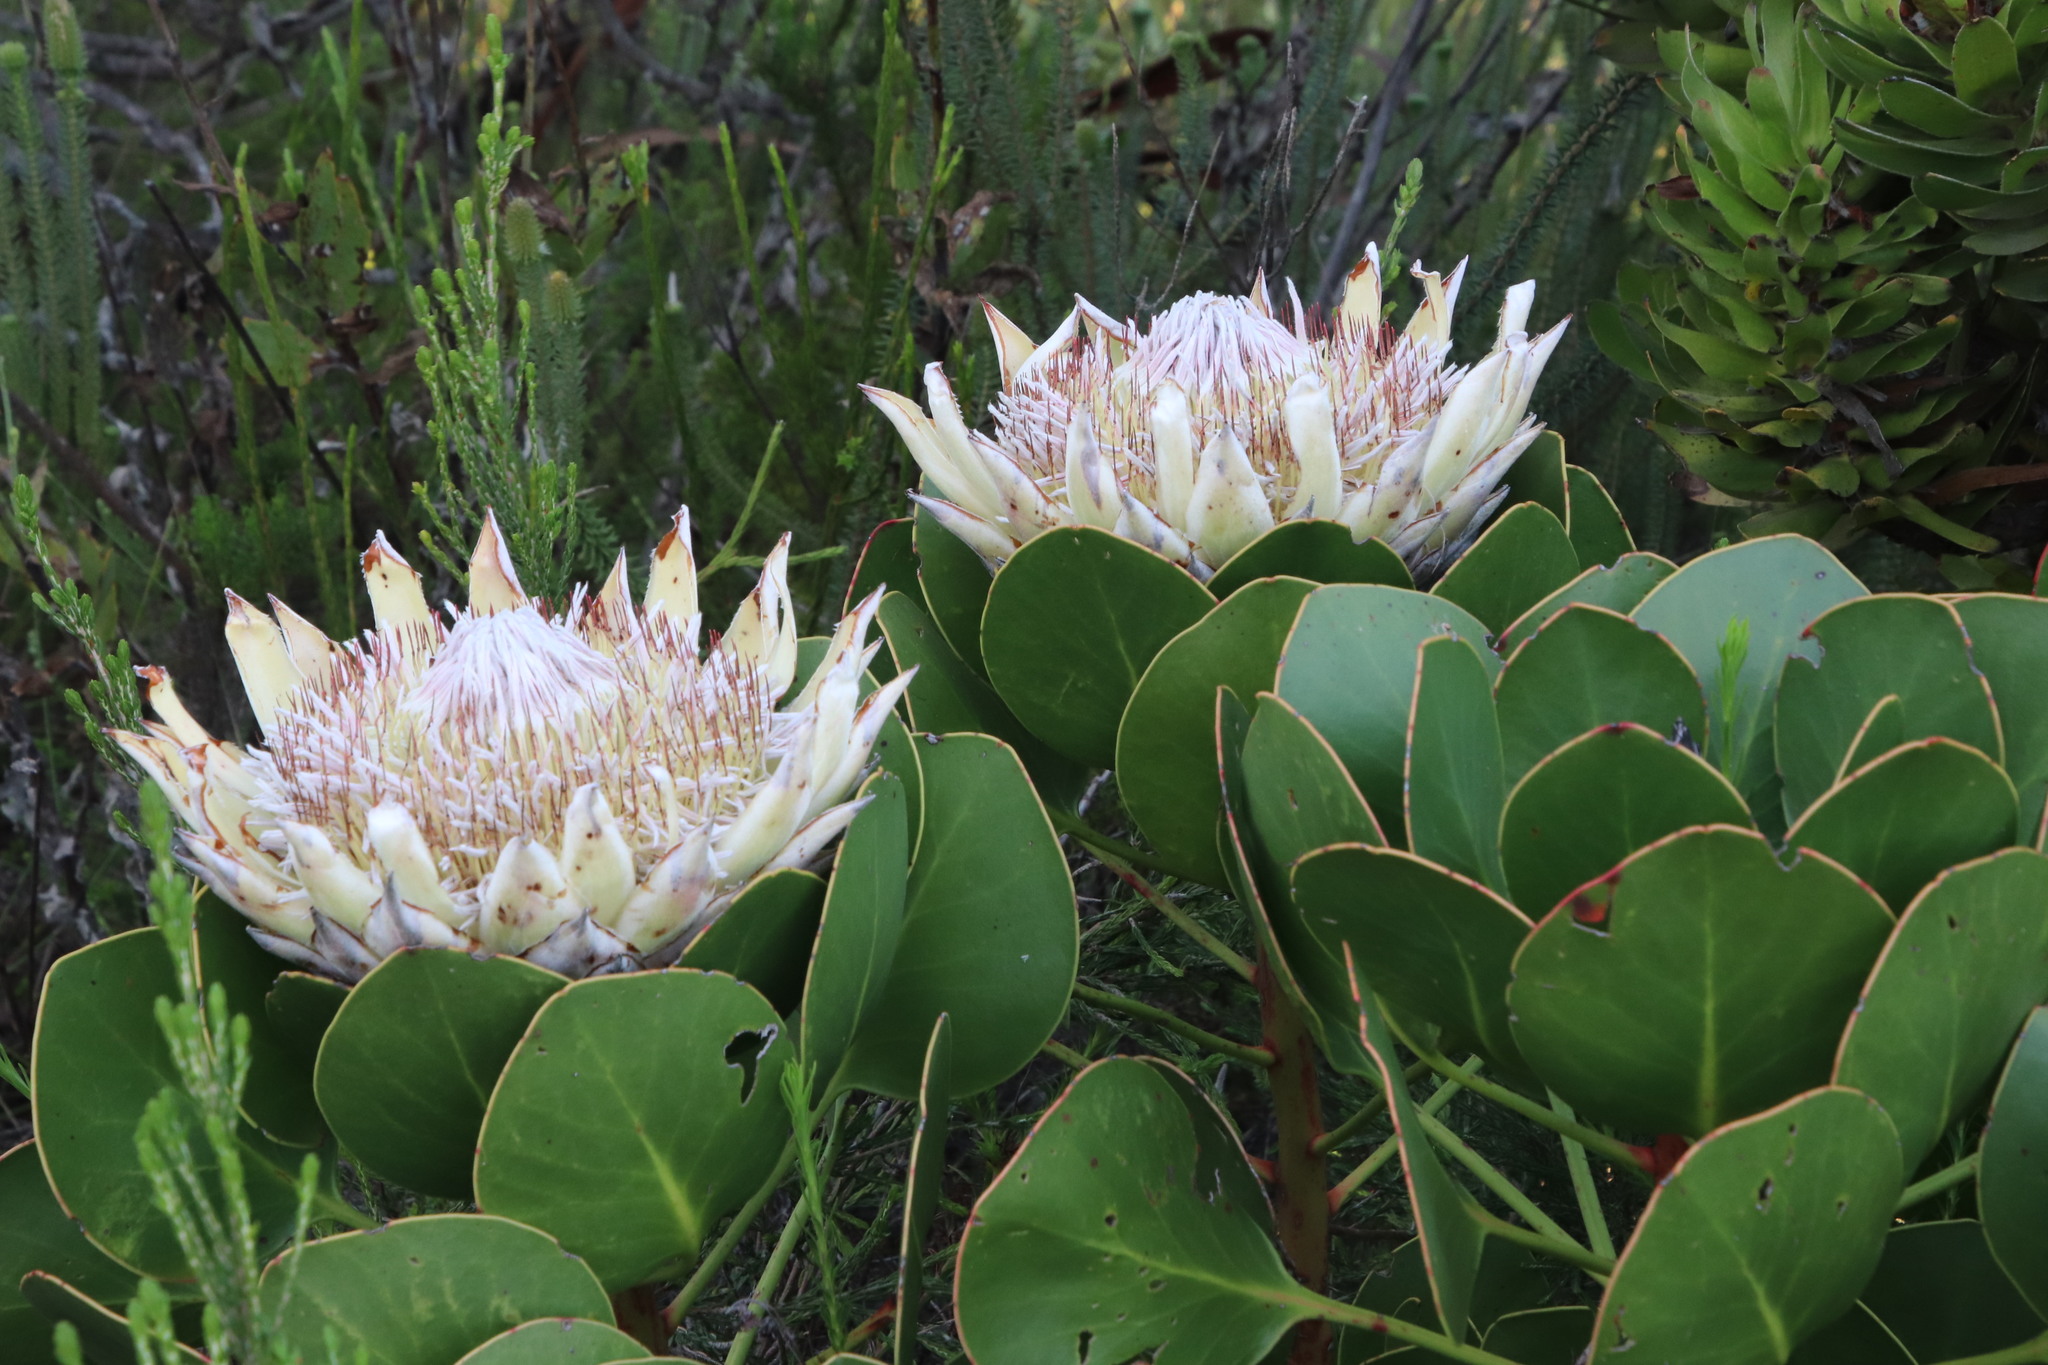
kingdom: Plantae
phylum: Tracheophyta
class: Magnoliopsida
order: Proteales
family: Proteaceae
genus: Protea
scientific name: Protea cynaroides
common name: King protea
